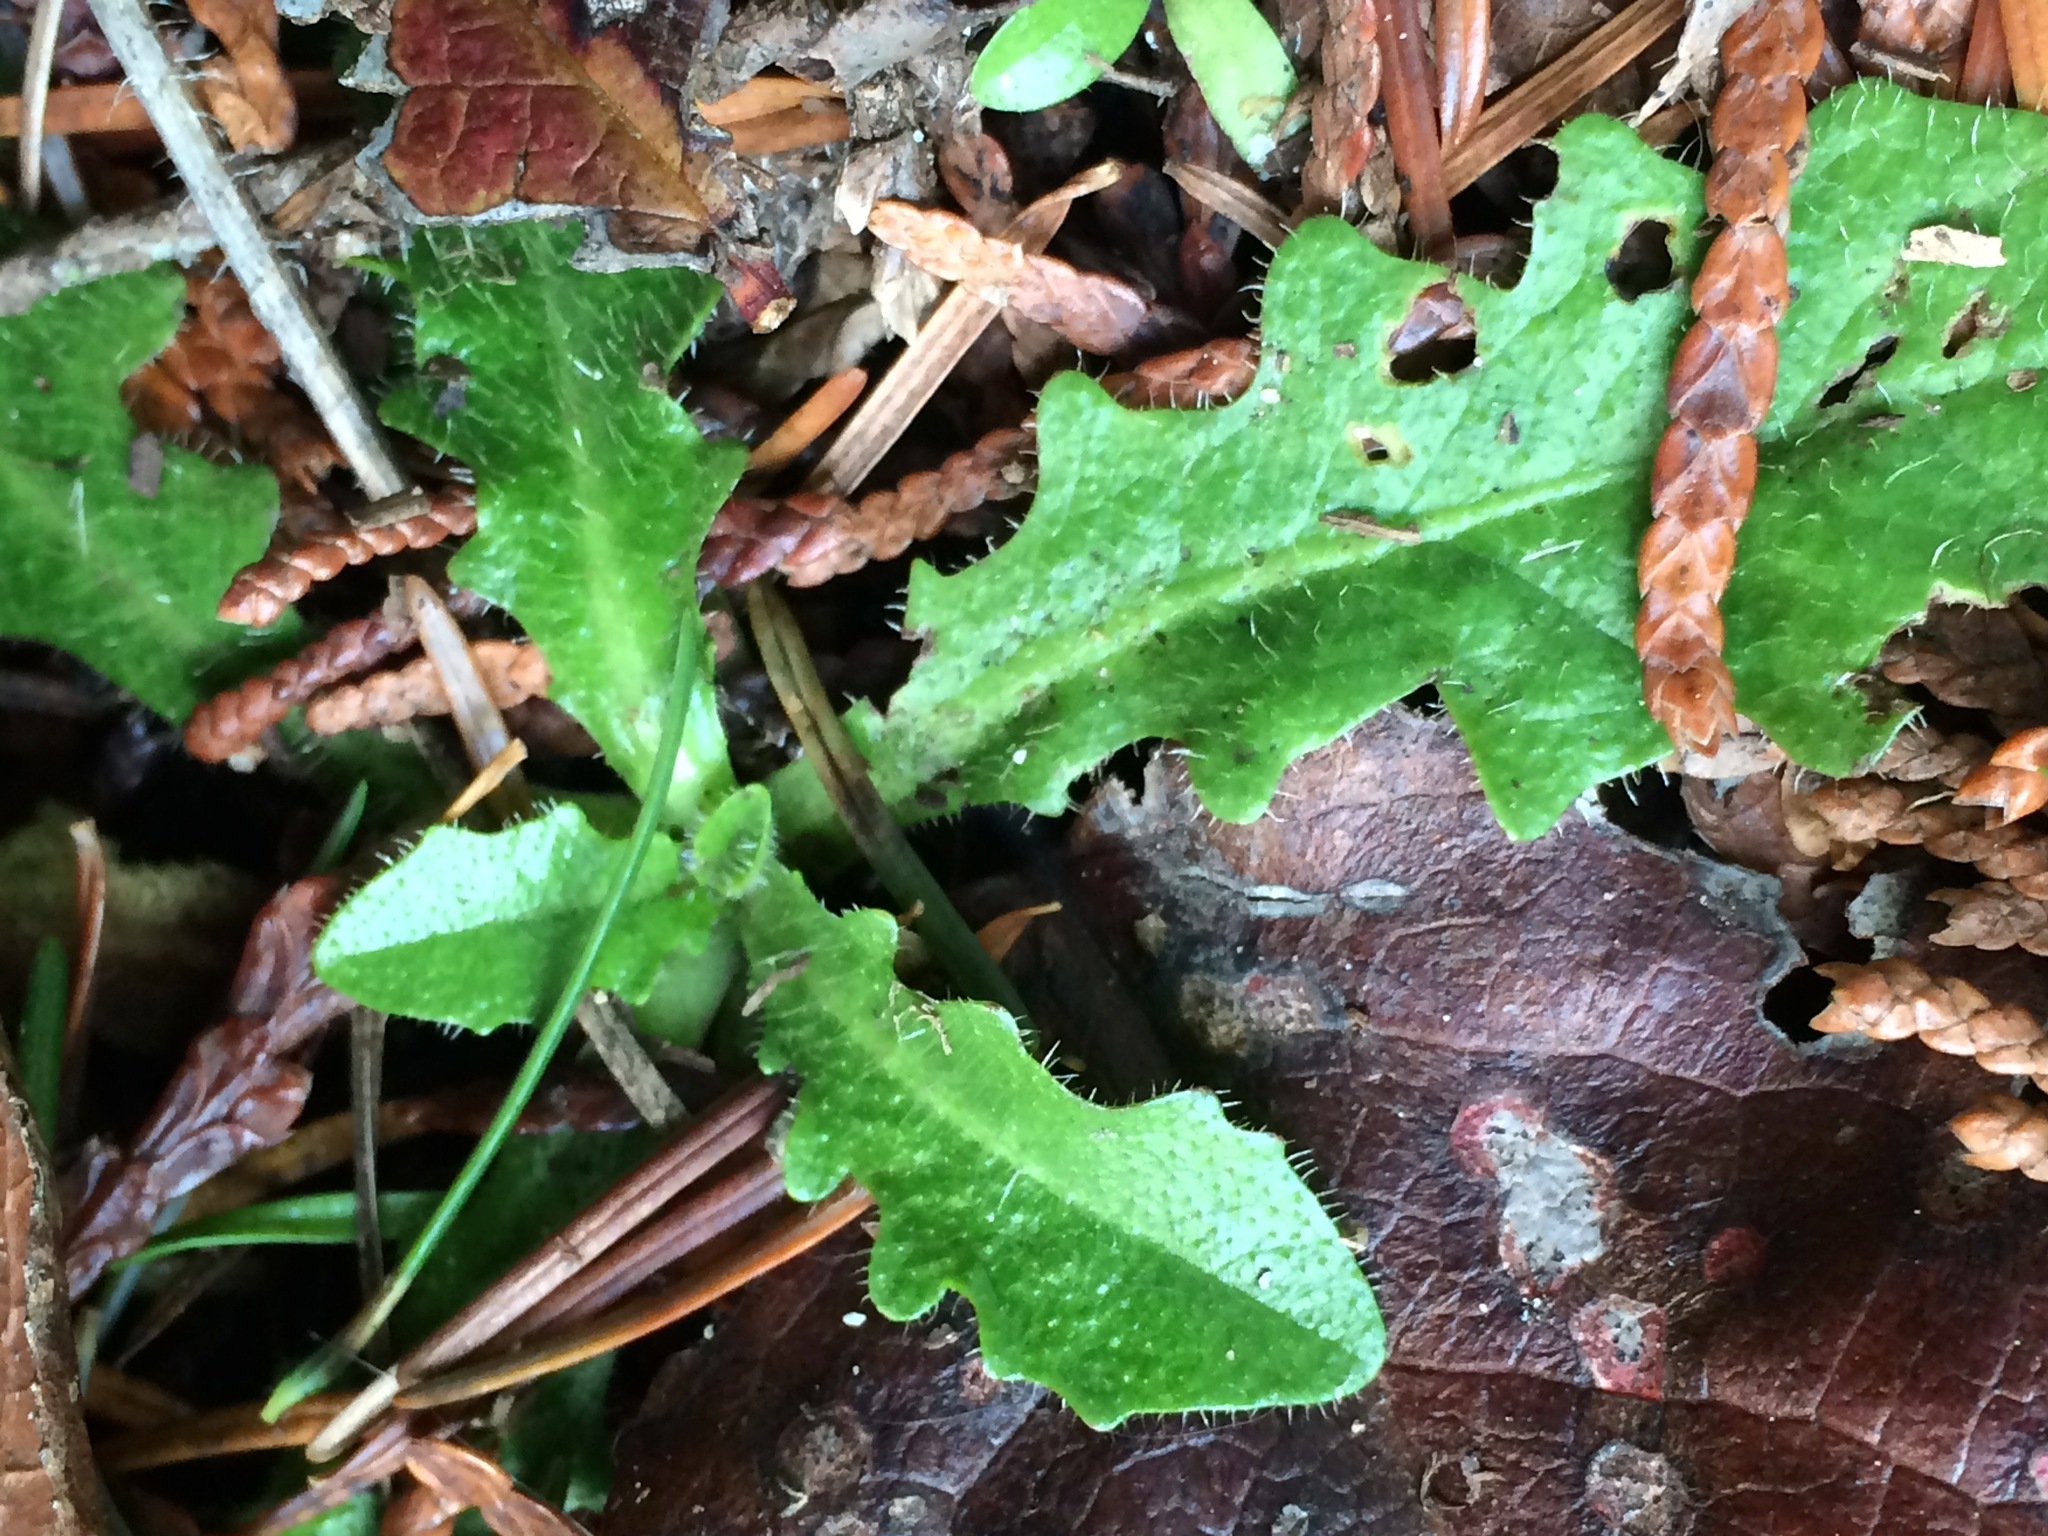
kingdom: Plantae
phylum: Tracheophyta
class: Magnoliopsida
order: Asterales
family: Asteraceae
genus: Hypochaeris
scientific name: Hypochaeris radicata
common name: Flatweed
